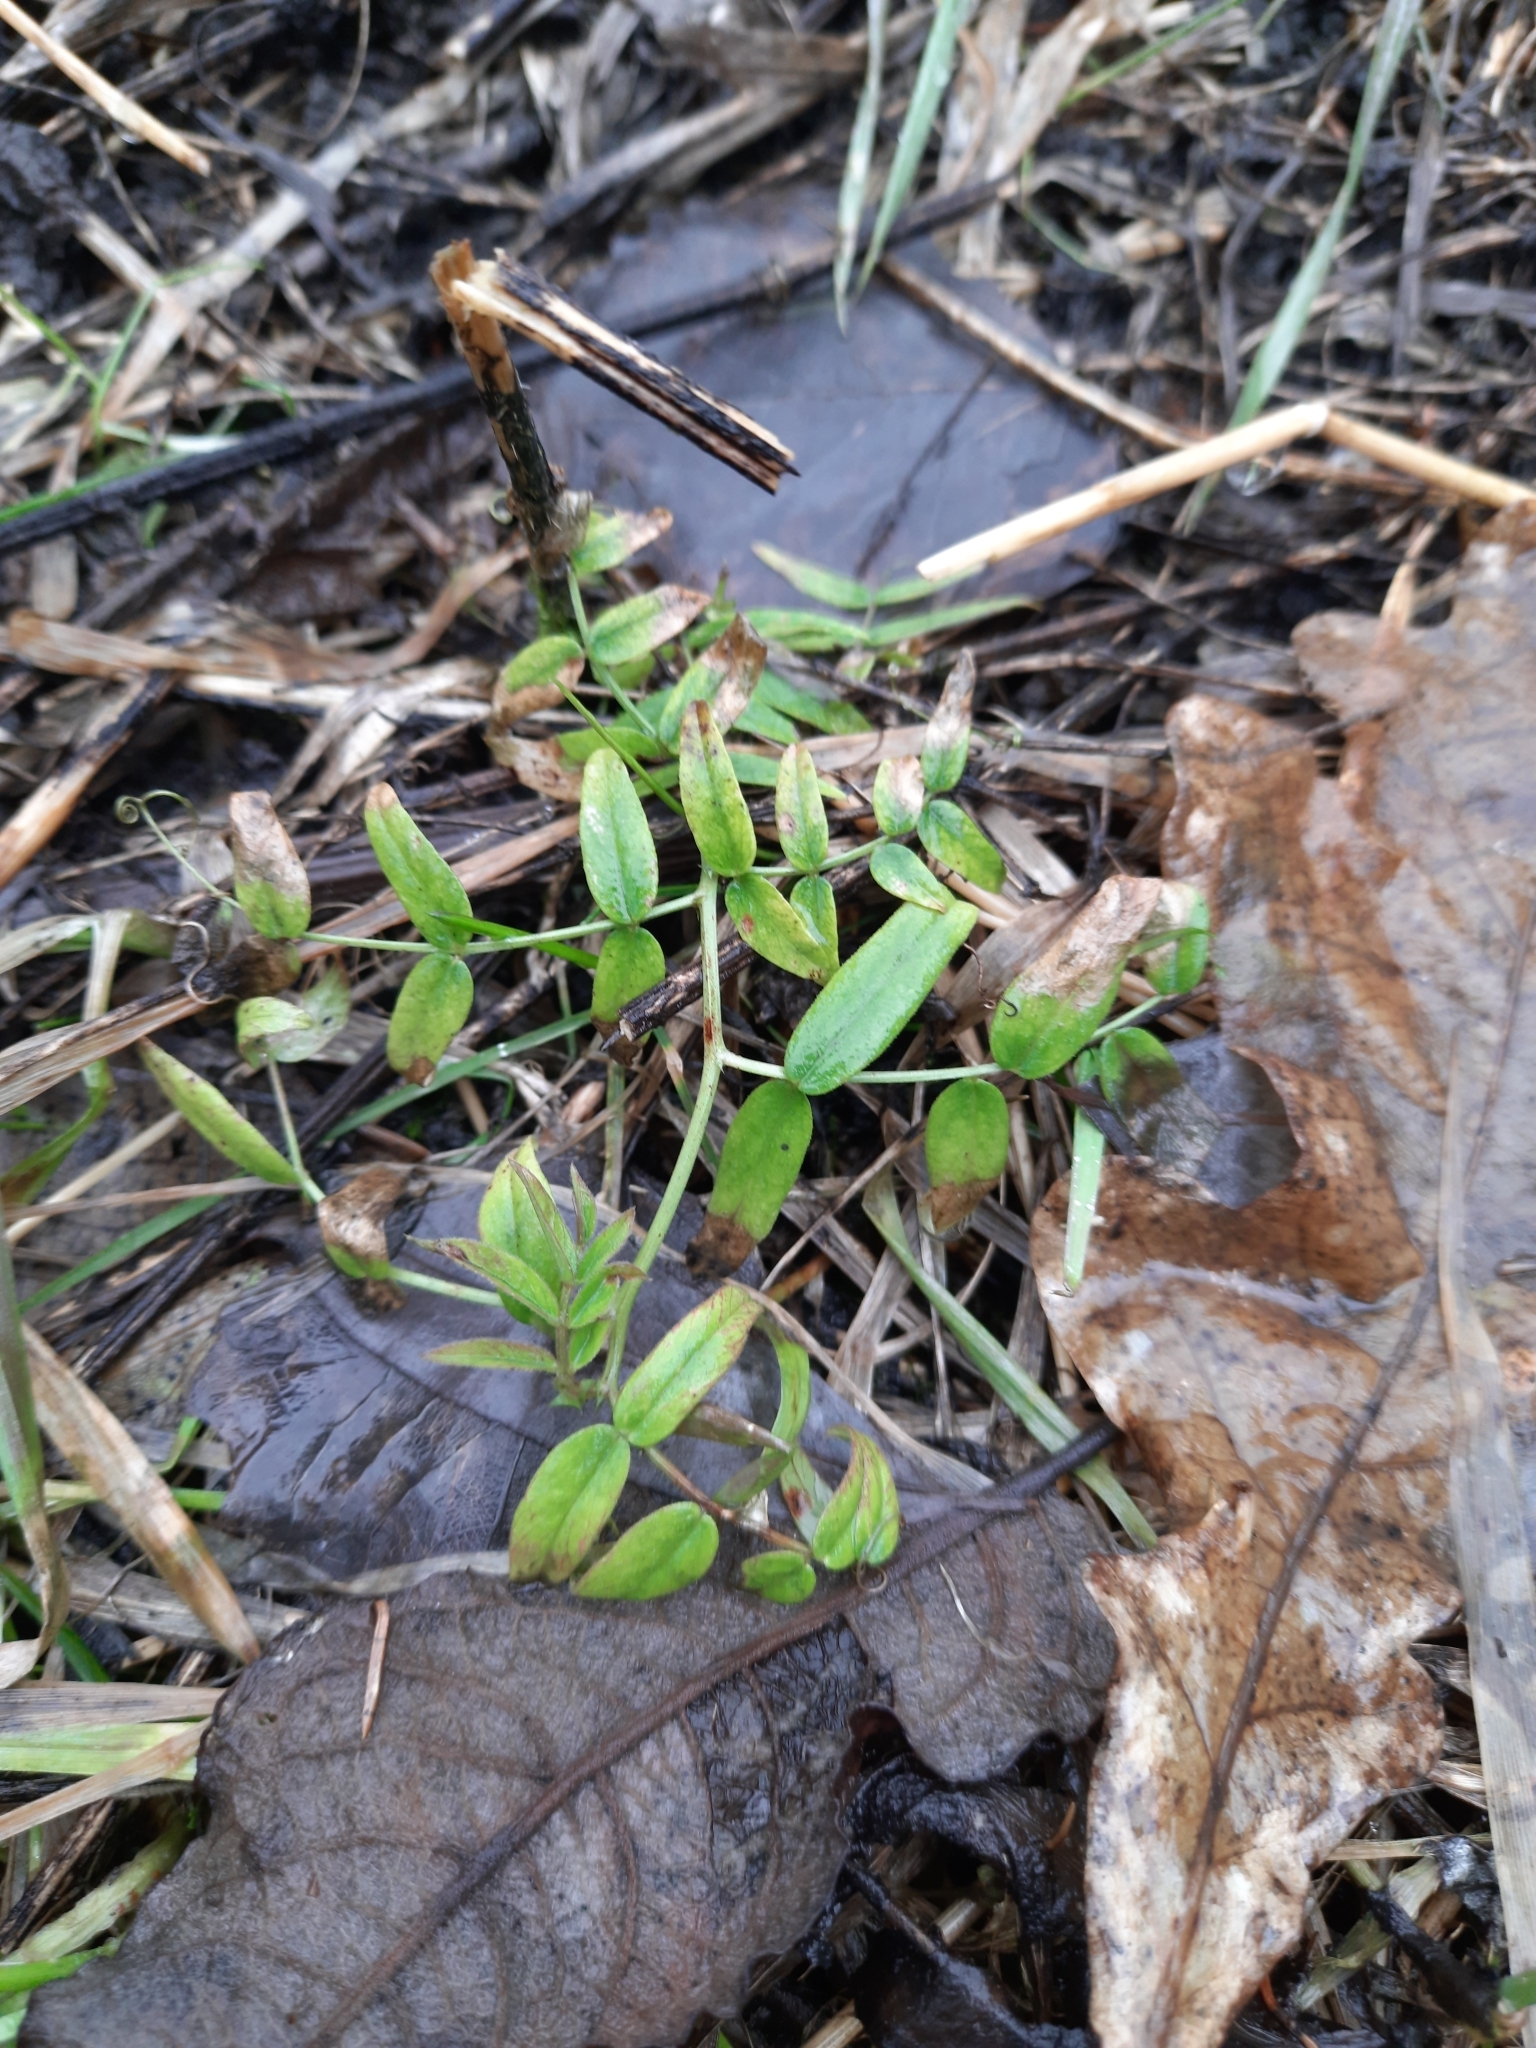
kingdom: Plantae
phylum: Tracheophyta
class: Magnoliopsida
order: Fabales
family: Fabaceae
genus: Vicia
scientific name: Vicia sepium
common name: Bush vetch
